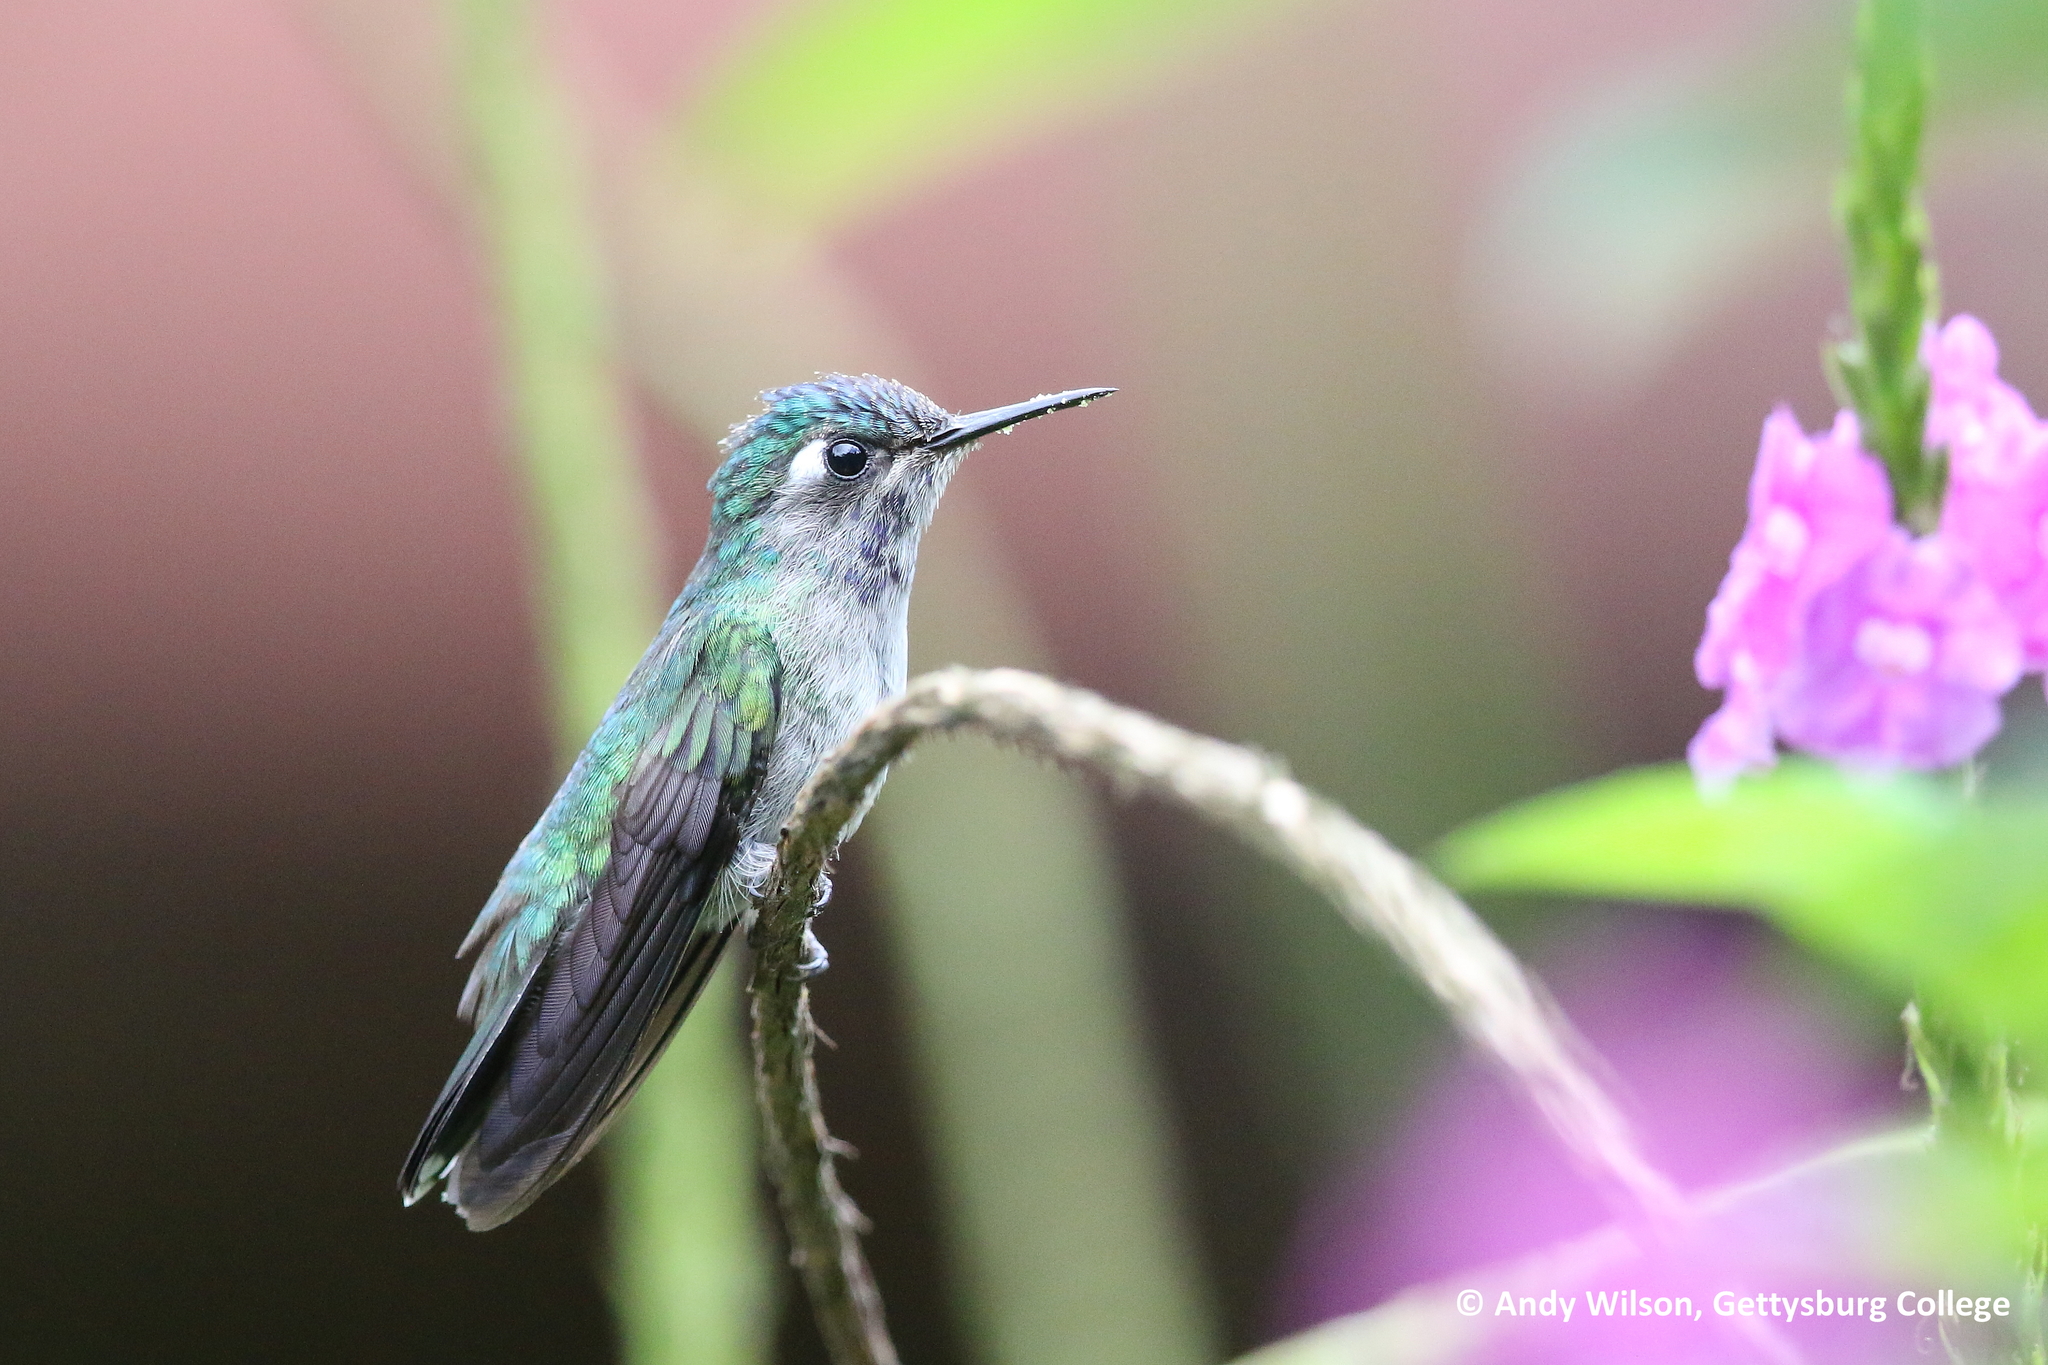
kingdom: Animalia
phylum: Chordata
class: Aves
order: Apodiformes
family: Trochilidae
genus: Klais
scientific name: Klais guimeti
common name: Violet-headed hummingbird
